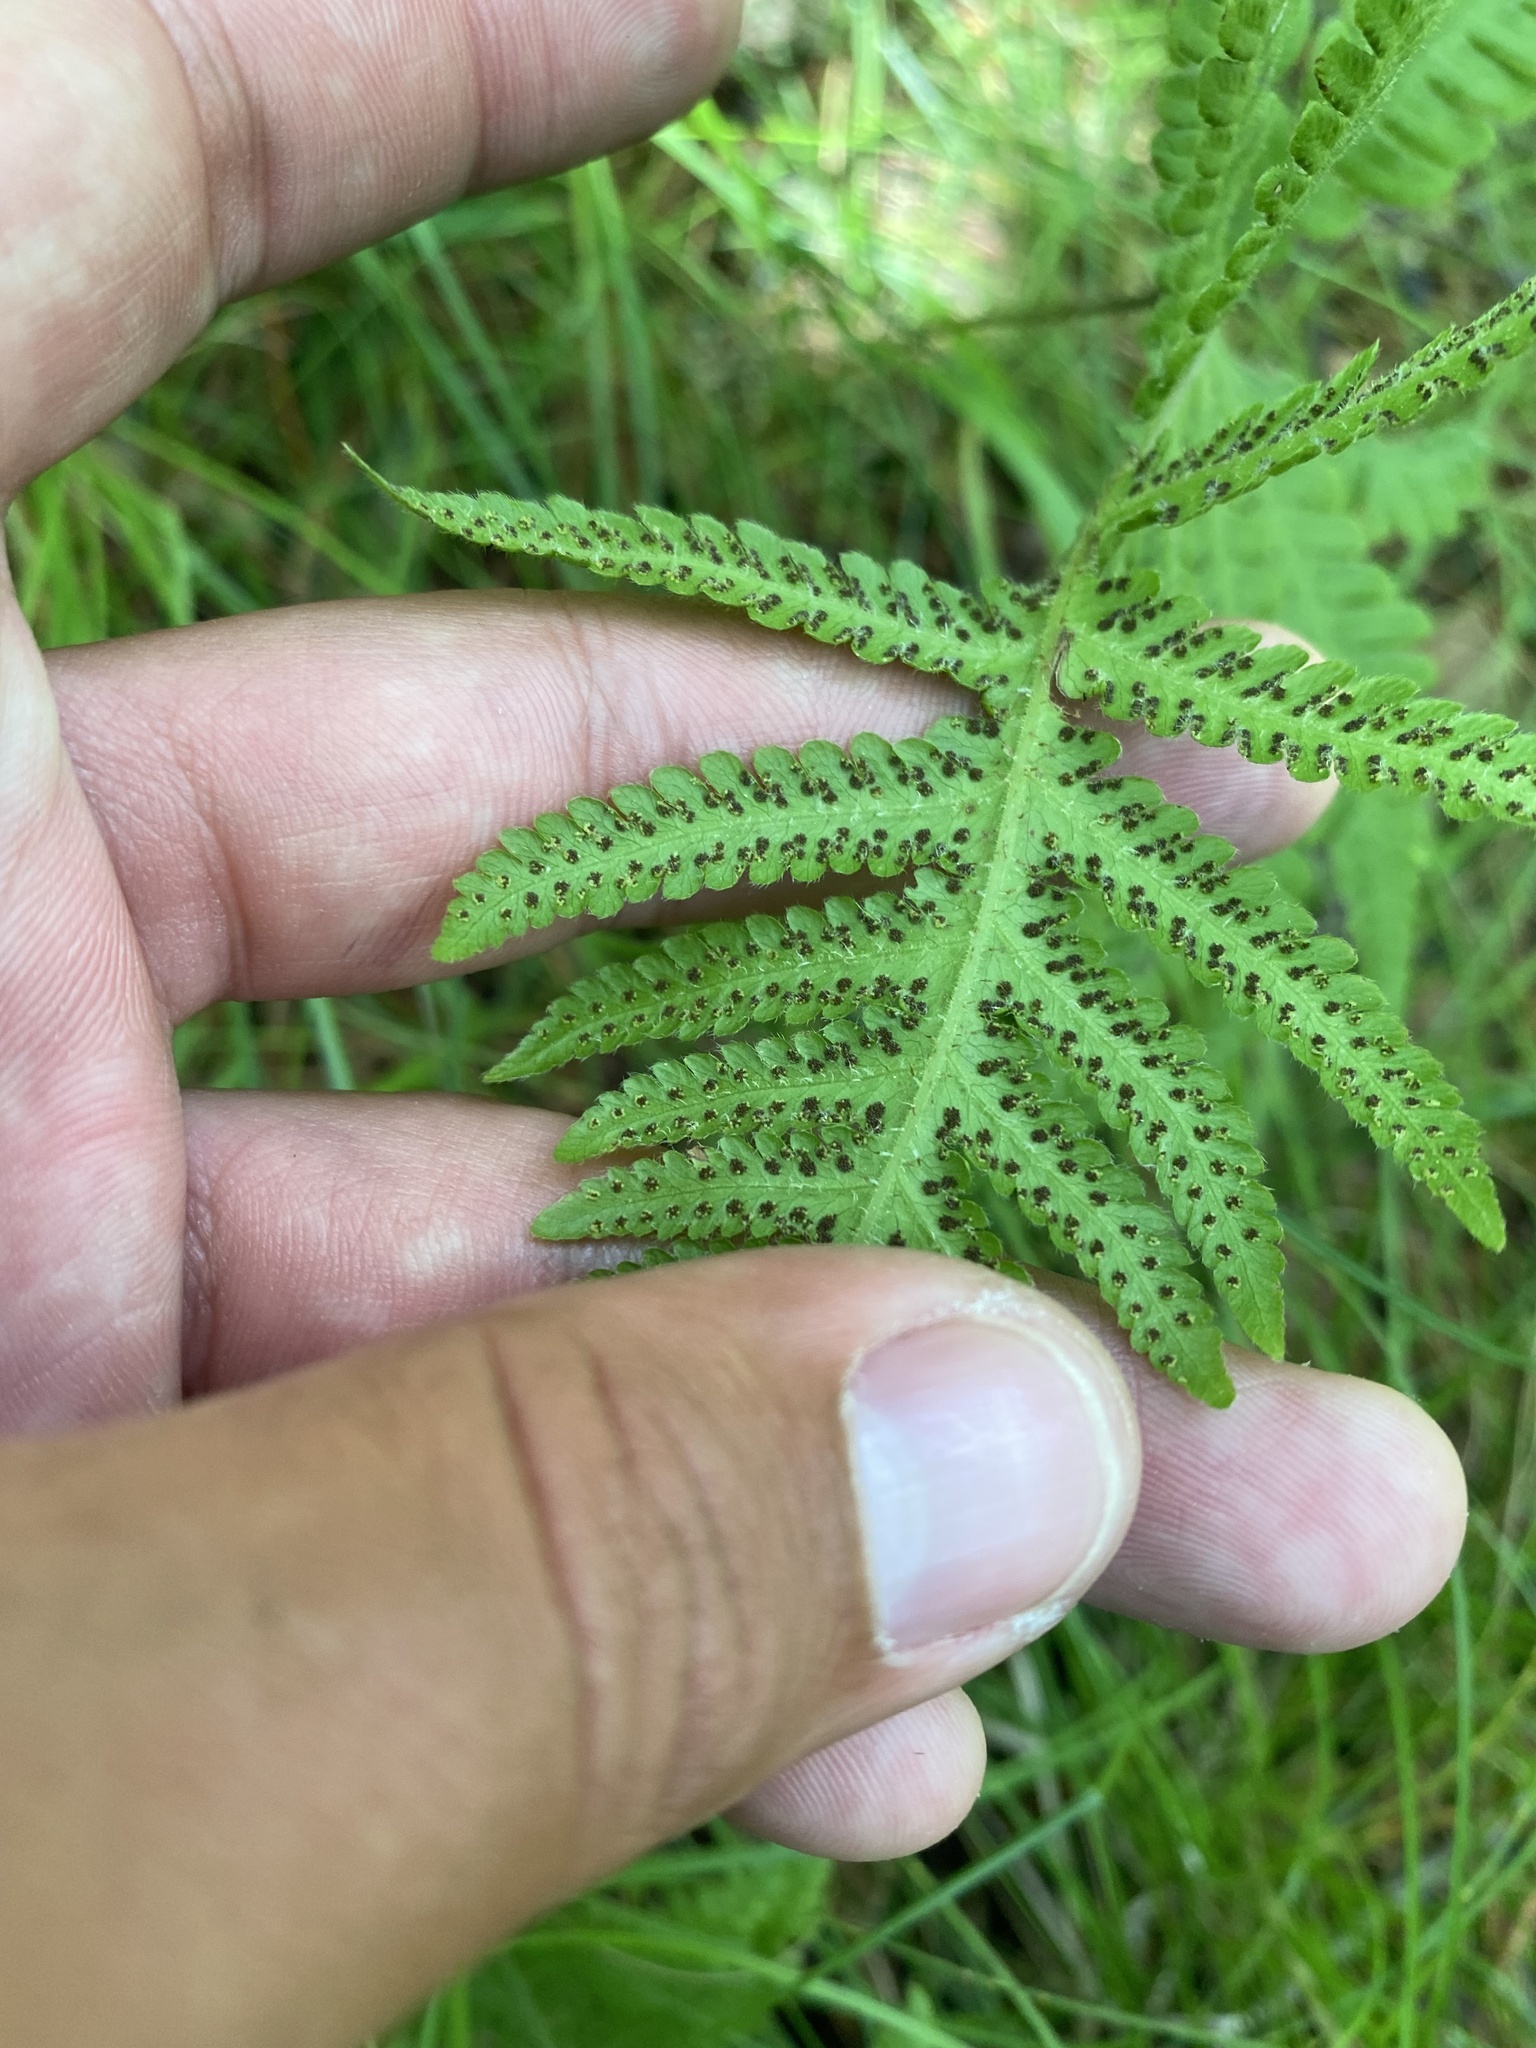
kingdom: Plantae
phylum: Tracheophyta
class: Polypodiopsida
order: Polypodiales
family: Thelypteridaceae
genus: Phegopteris
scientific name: Phegopteris connectilis
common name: Beech fern
